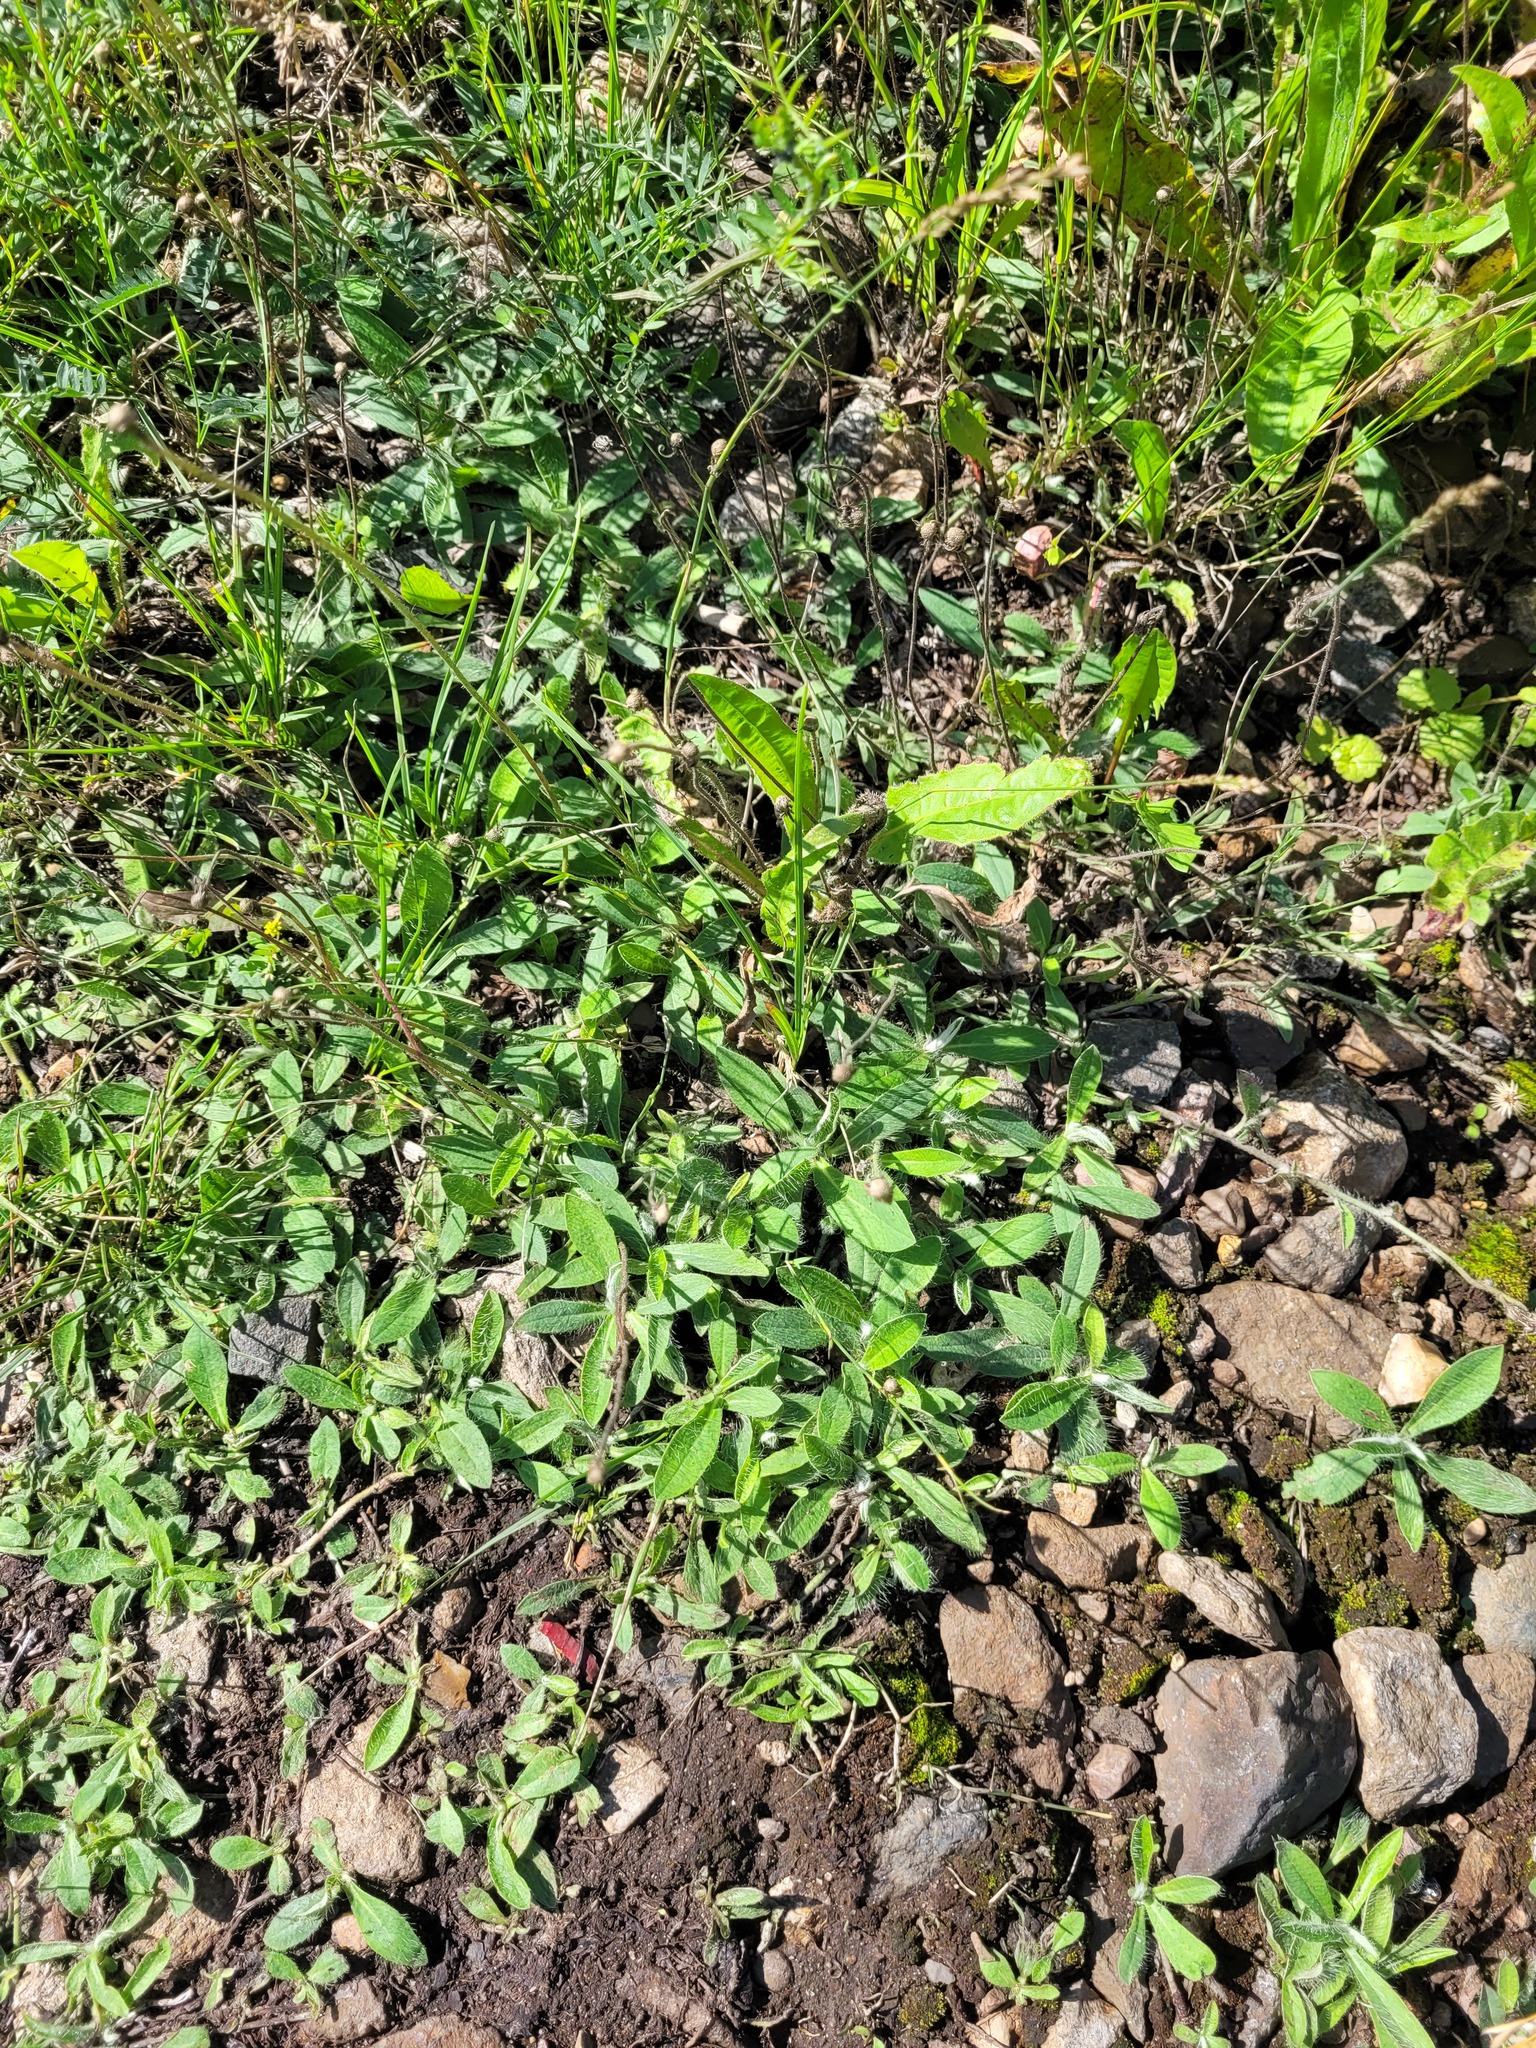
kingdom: Plantae
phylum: Tracheophyta
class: Magnoliopsida
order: Asterales
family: Asteraceae
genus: Pilosella
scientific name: Pilosella officinarum
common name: Mouse-ear hawkweed
